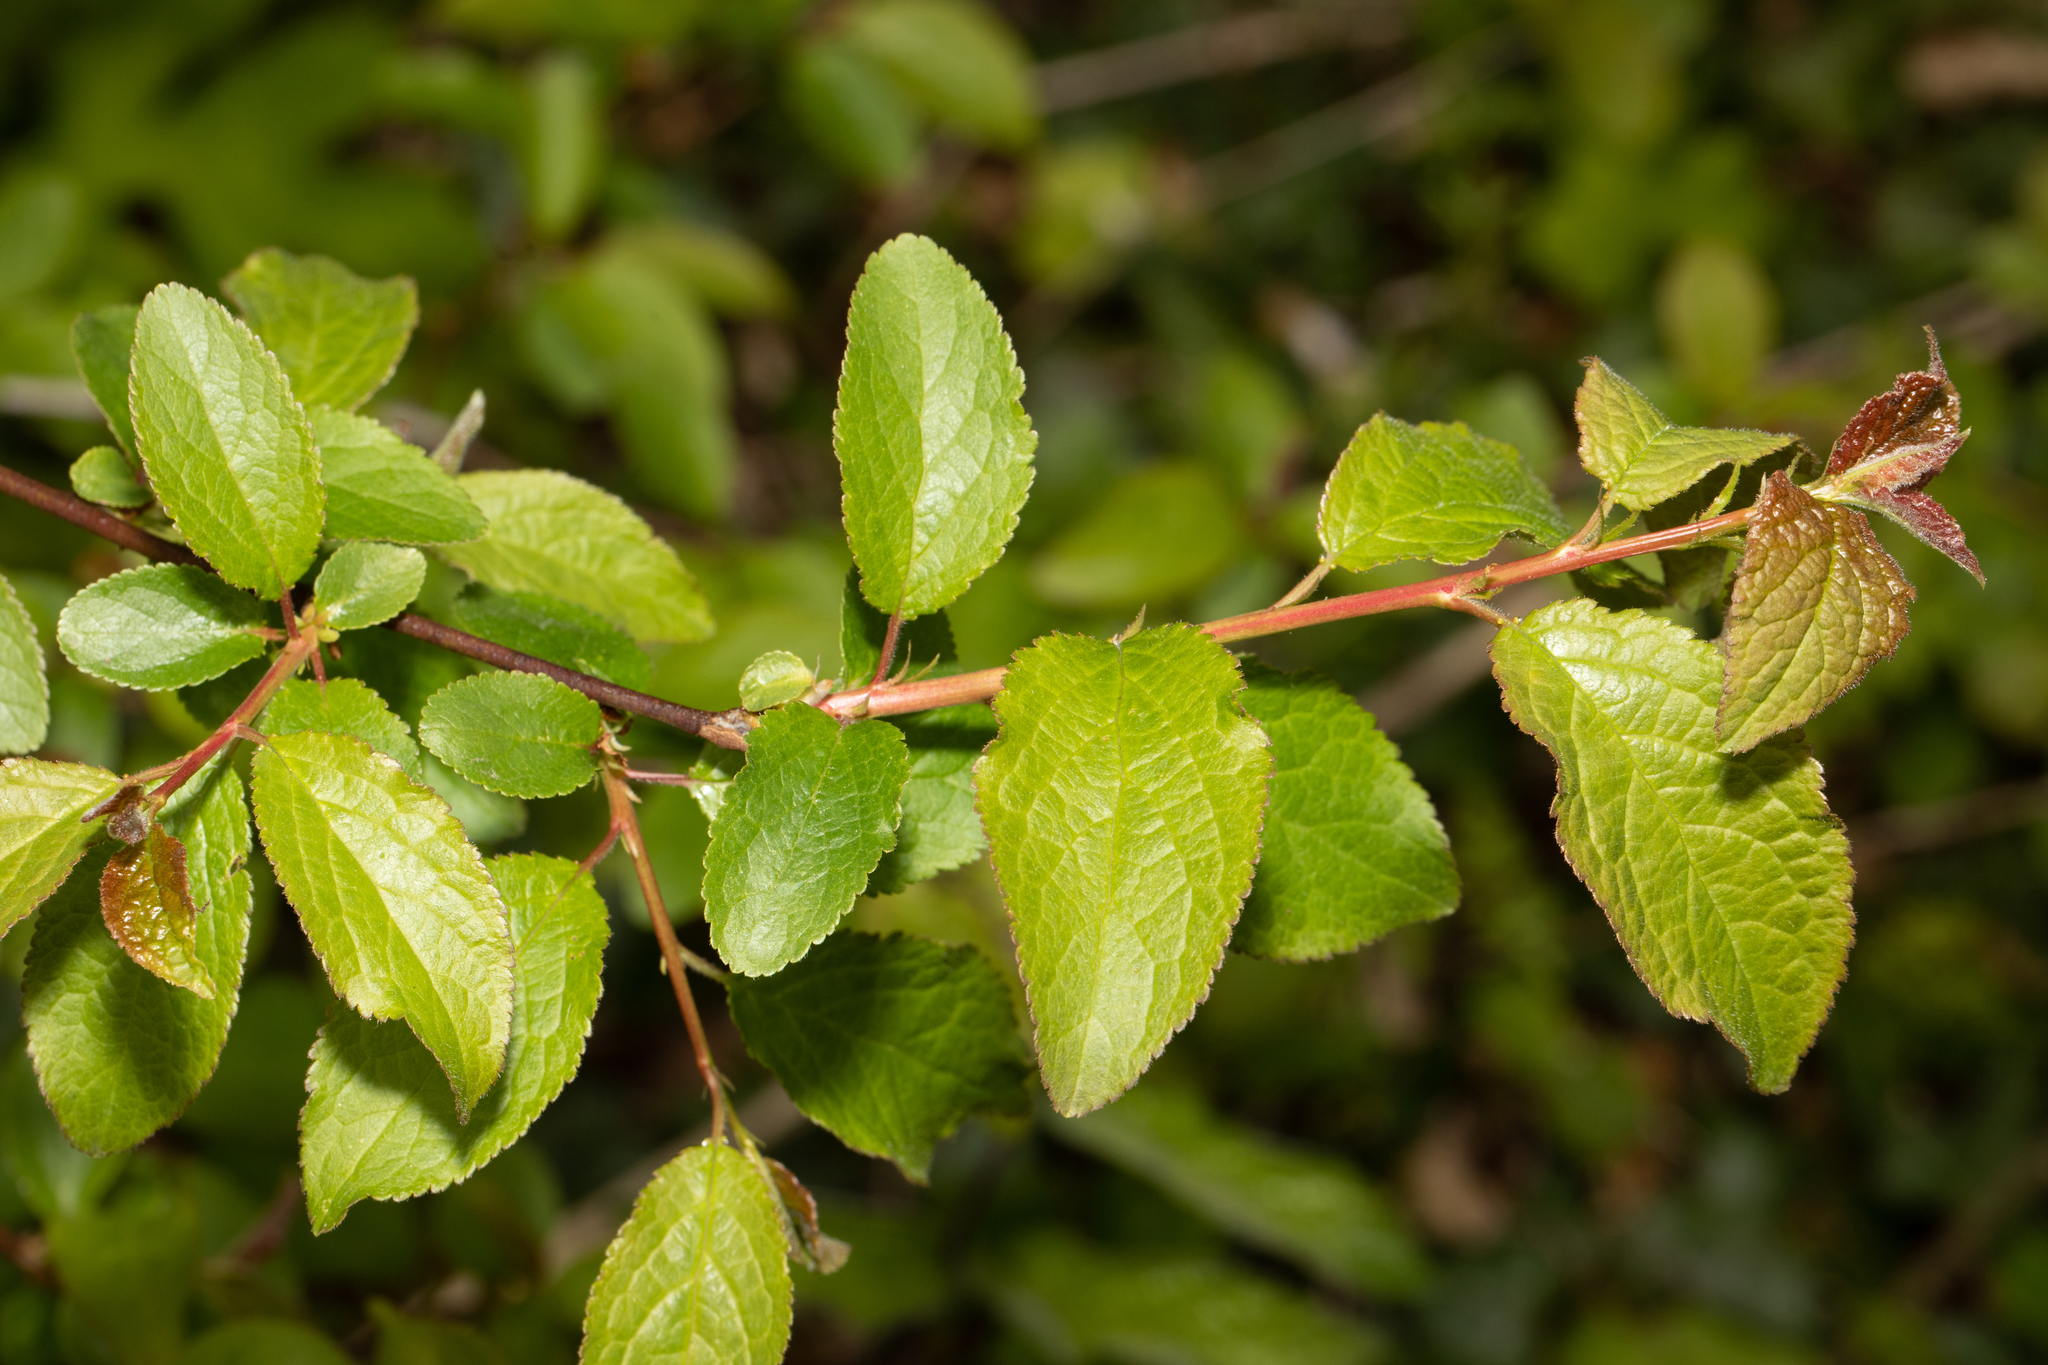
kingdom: Plantae
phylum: Tracheophyta
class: Magnoliopsida
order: Rosales
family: Rosaceae
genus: Prunus
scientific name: Prunus spinosa
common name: Blackthorn
